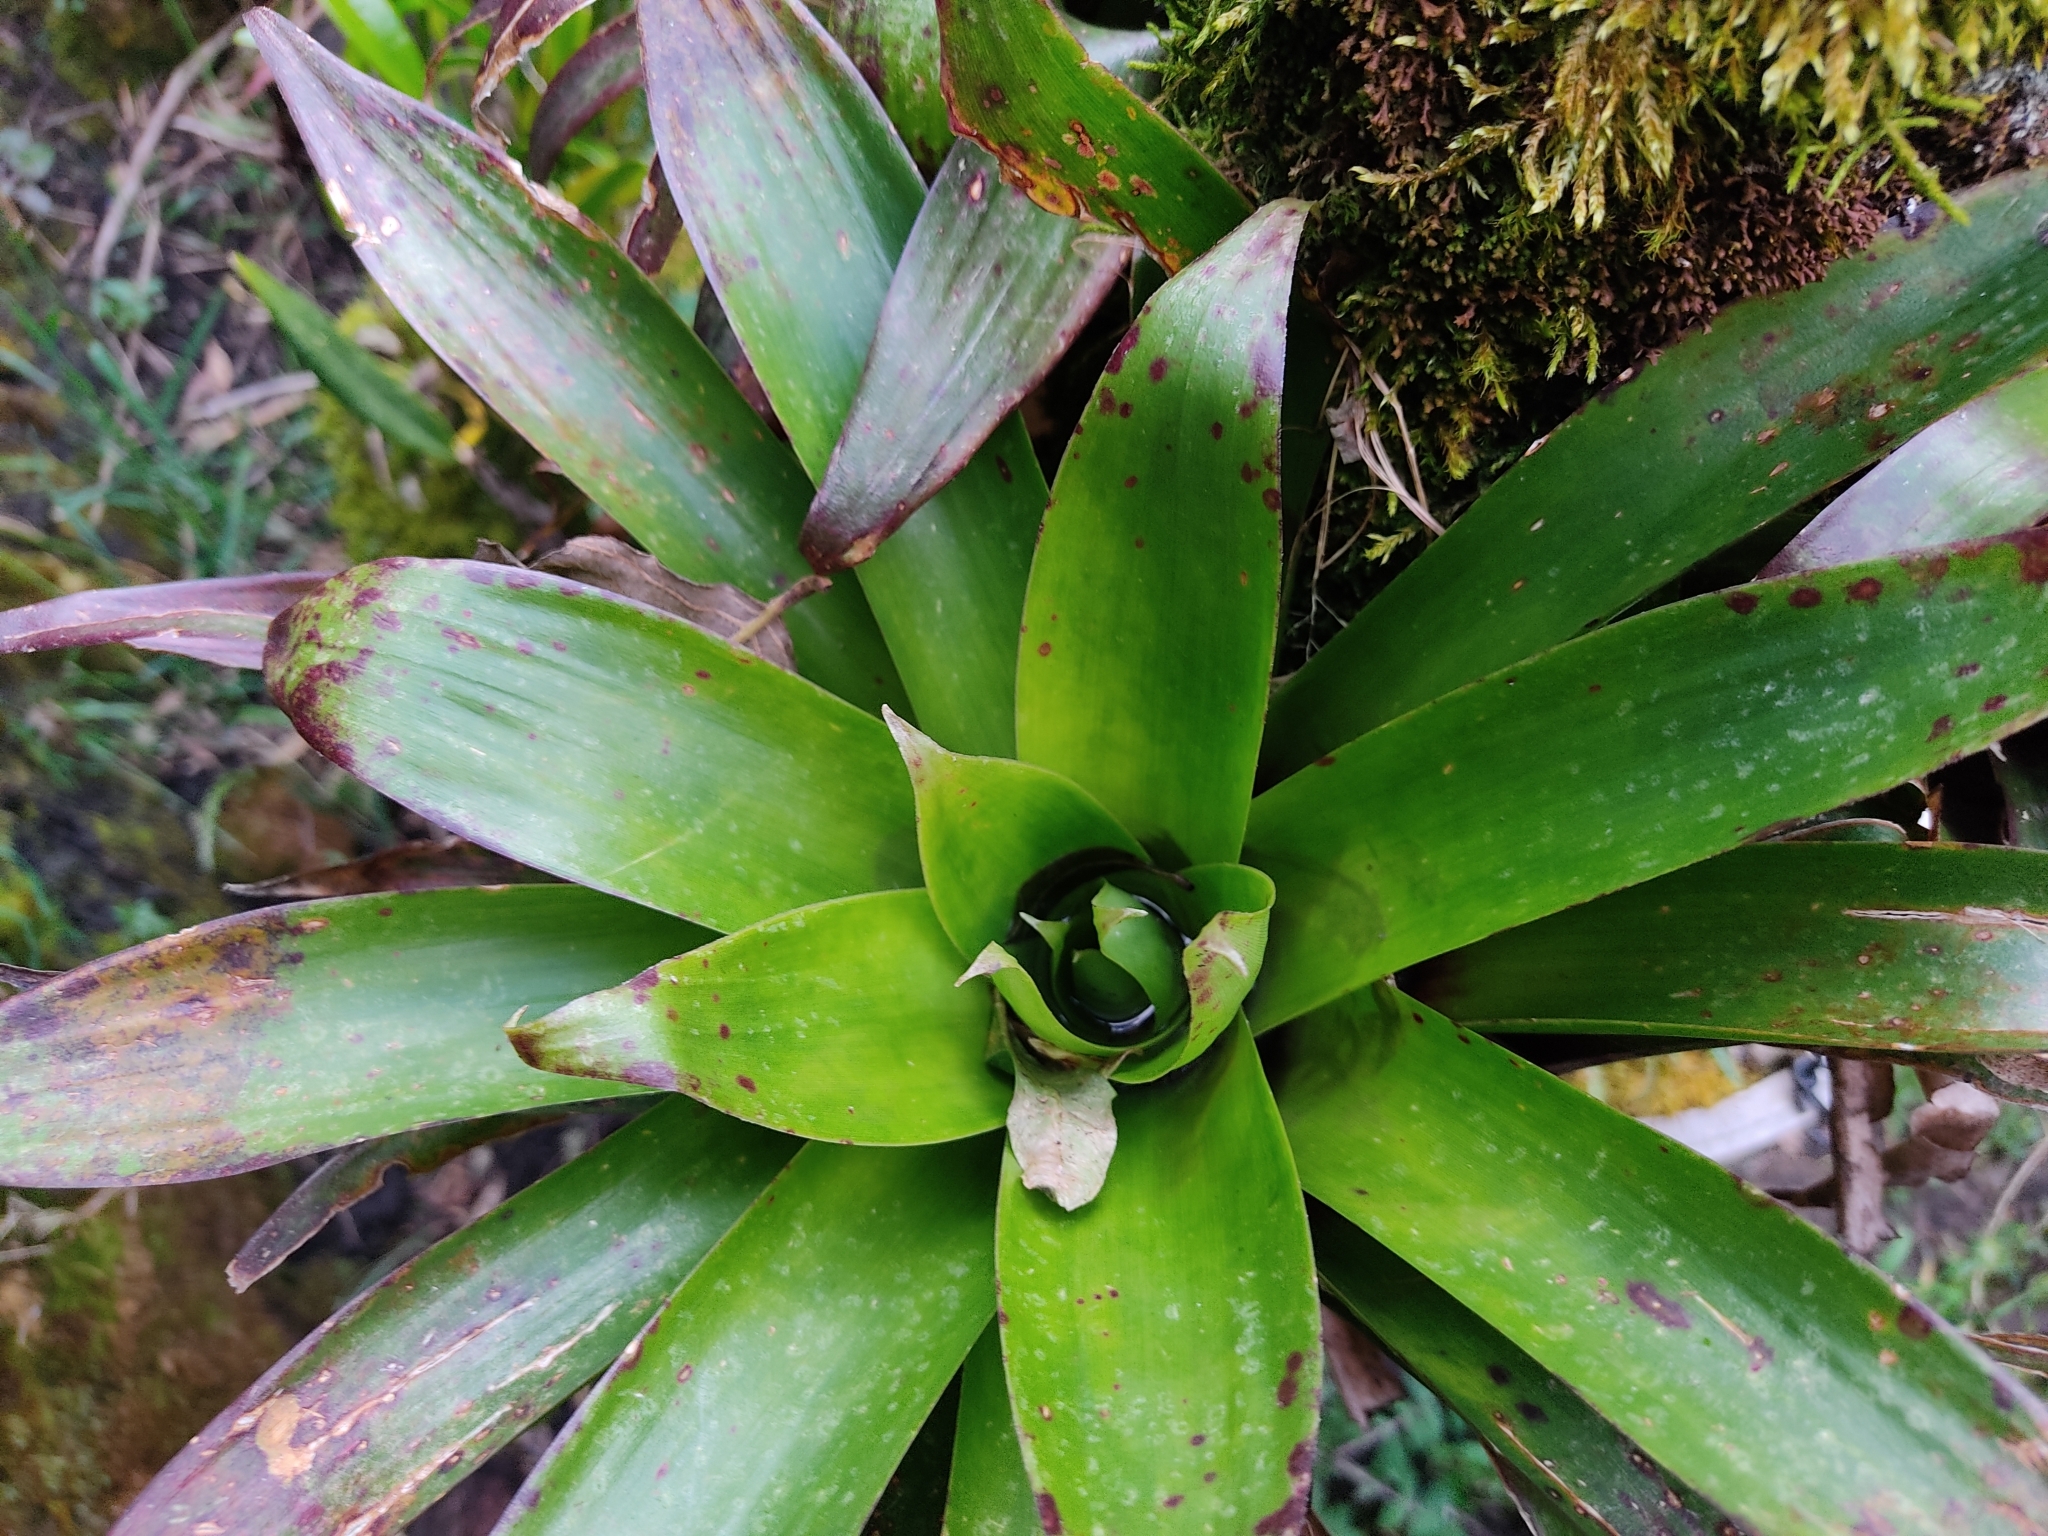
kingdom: Plantae
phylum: Tracheophyta
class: Liliopsida
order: Poales
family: Bromeliaceae
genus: Tillandsia
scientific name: Tillandsia complanata
